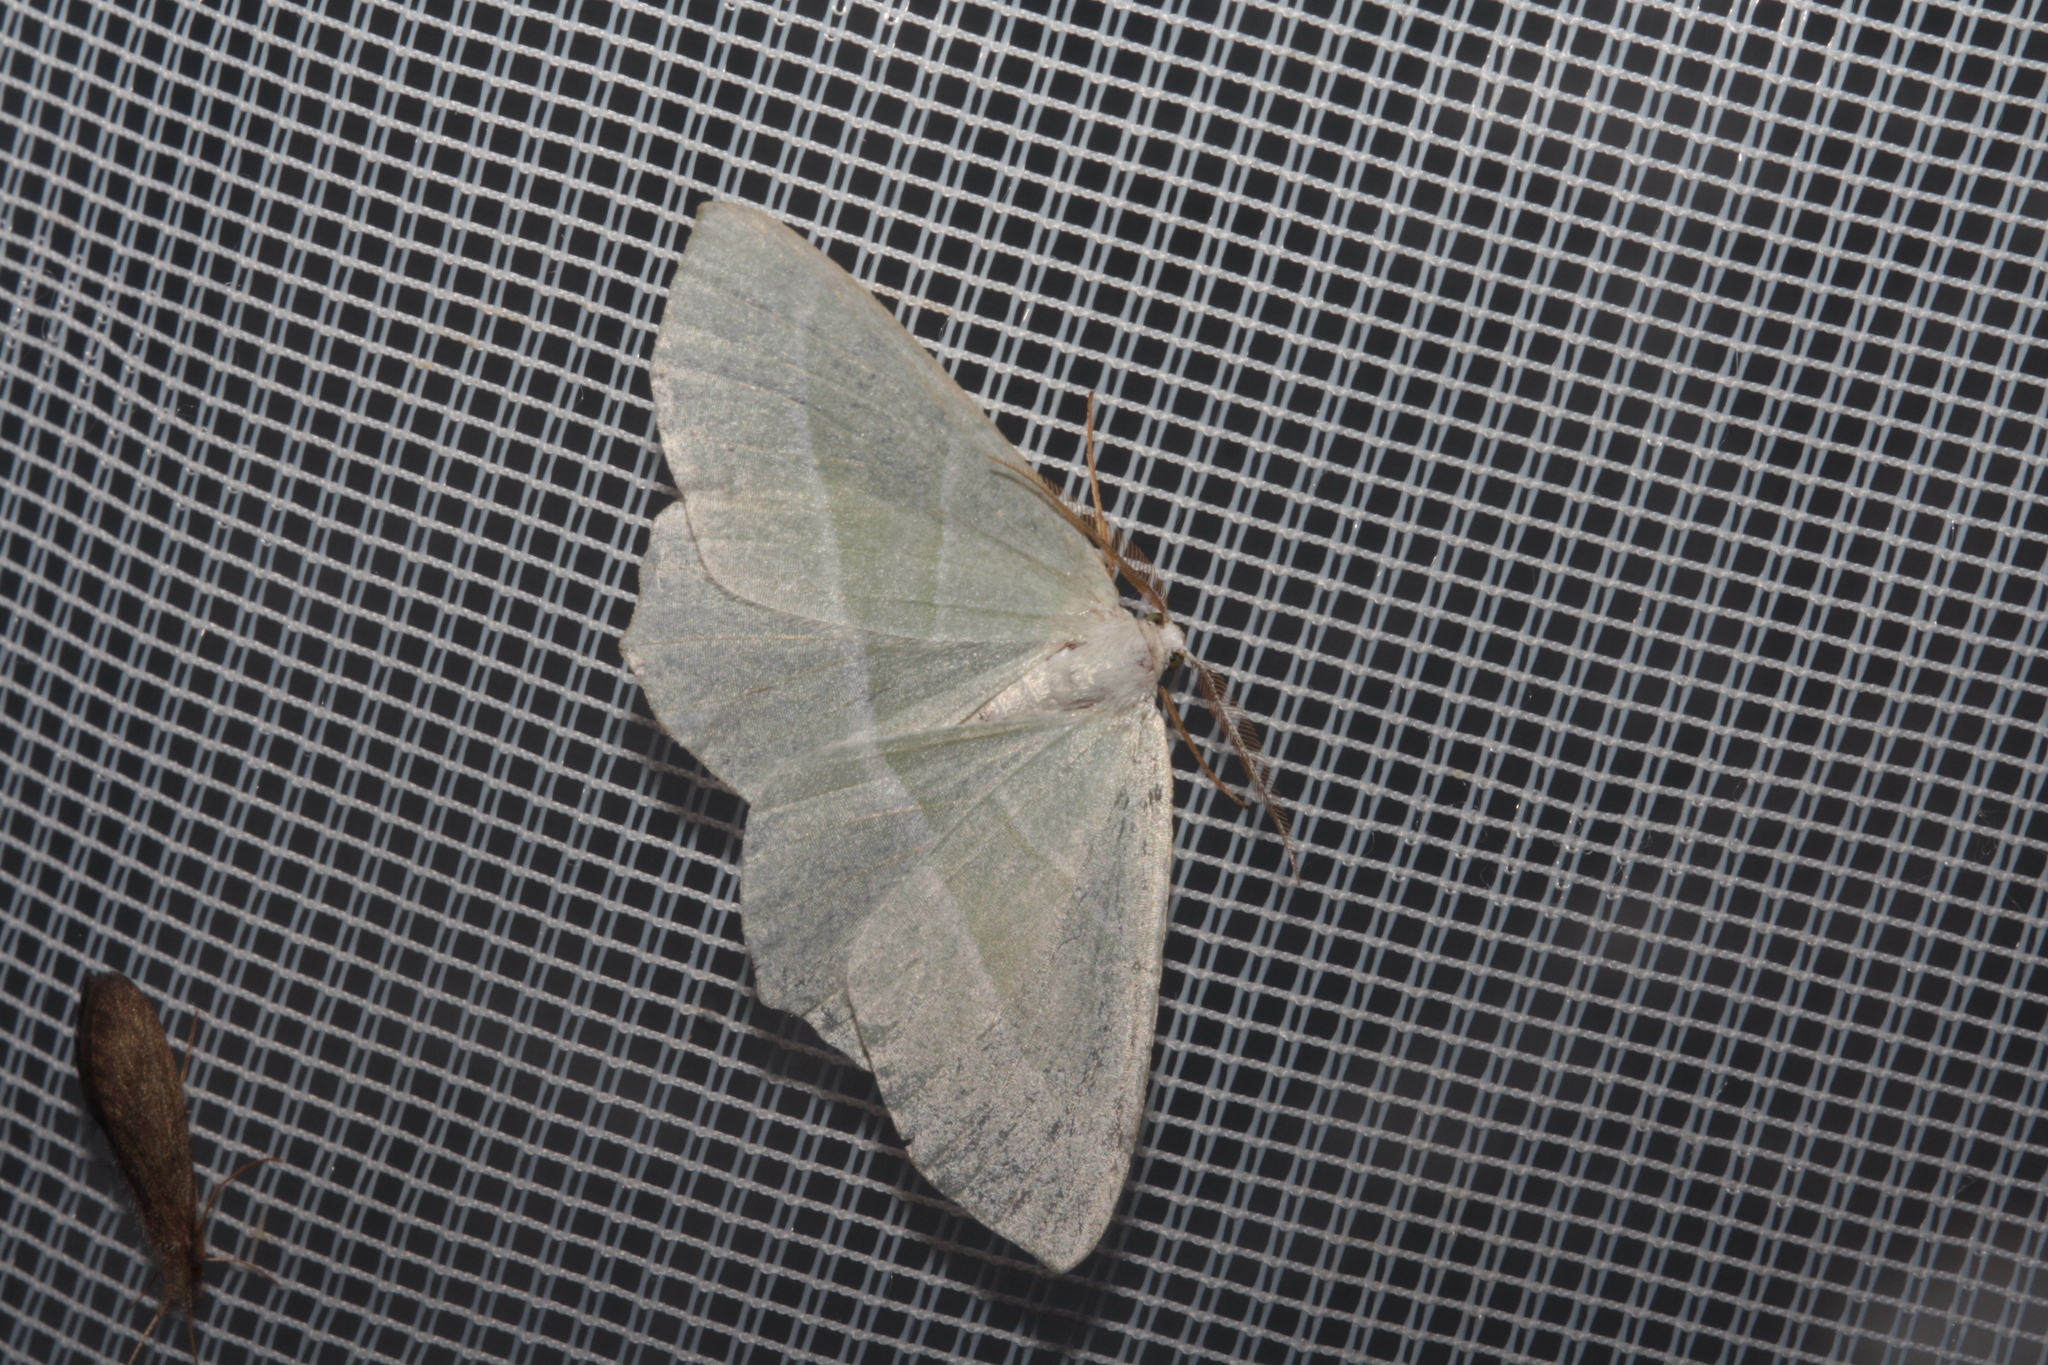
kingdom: Animalia
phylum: Arthropoda
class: Insecta
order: Lepidoptera
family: Geometridae
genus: Campaea
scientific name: Campaea margaritaria
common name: Light emerald
